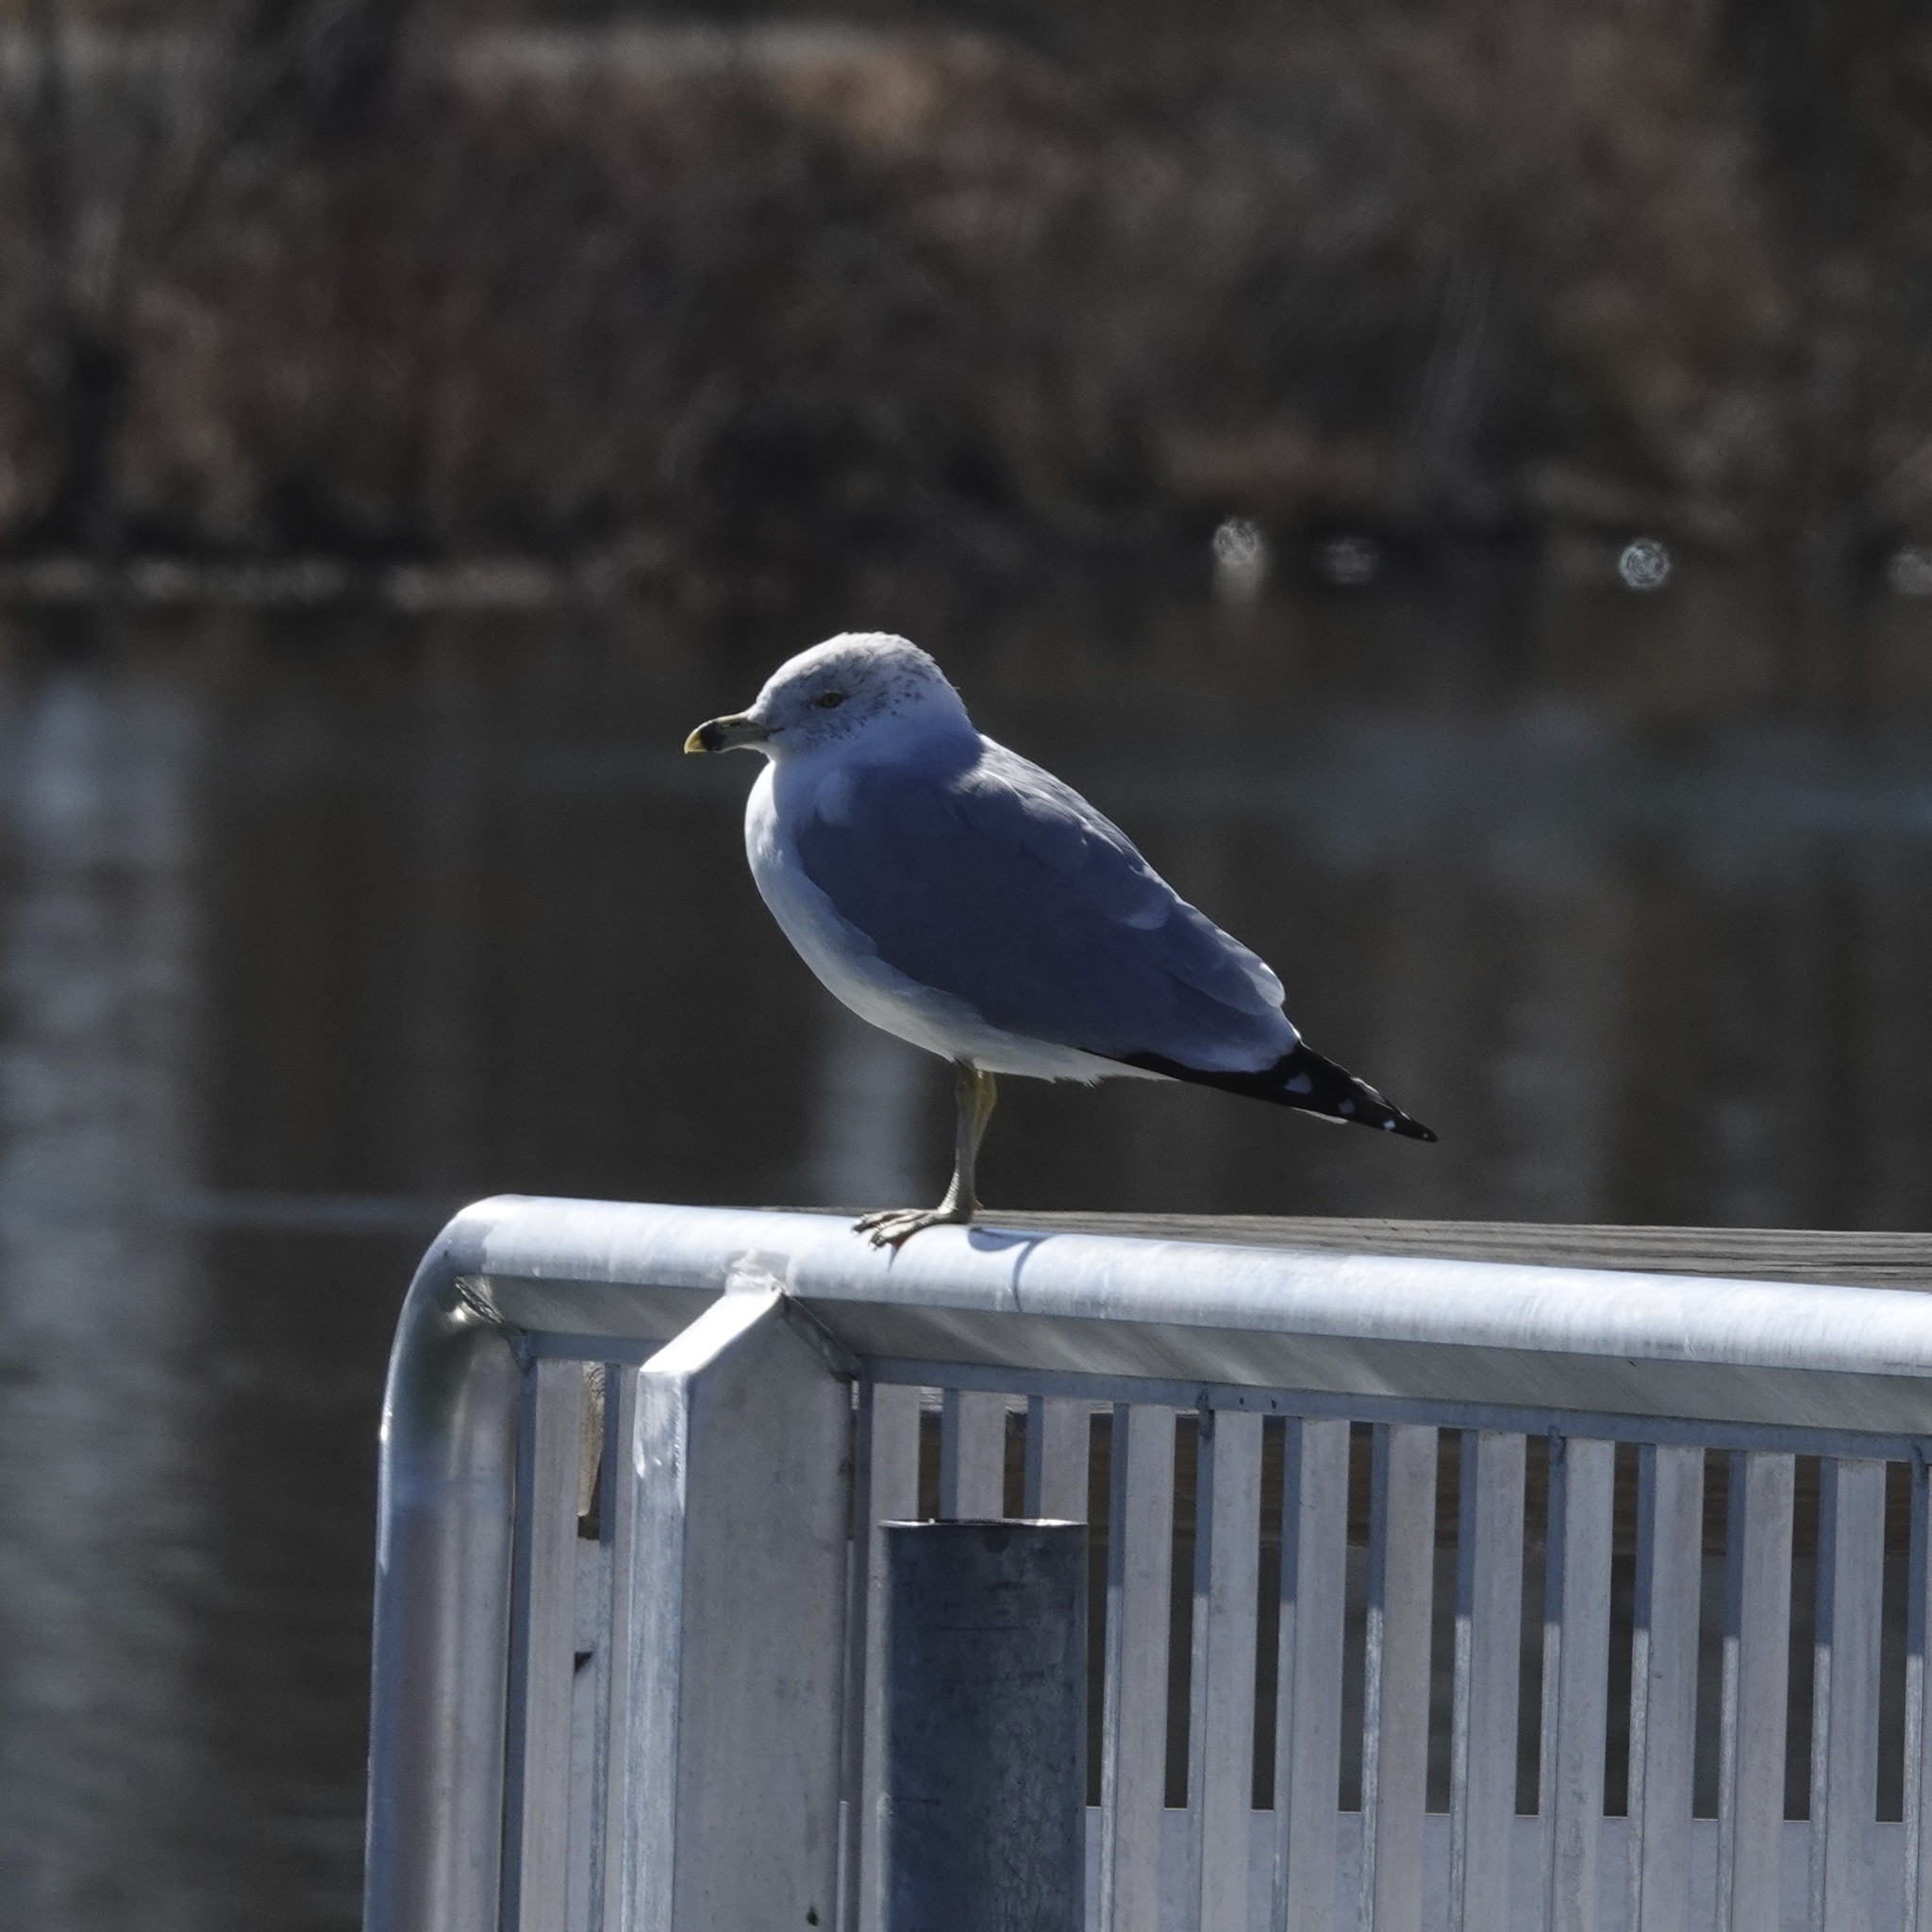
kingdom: Animalia
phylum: Chordata
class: Aves
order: Charadriiformes
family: Laridae
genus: Larus
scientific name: Larus delawarensis
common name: Ring-billed gull
